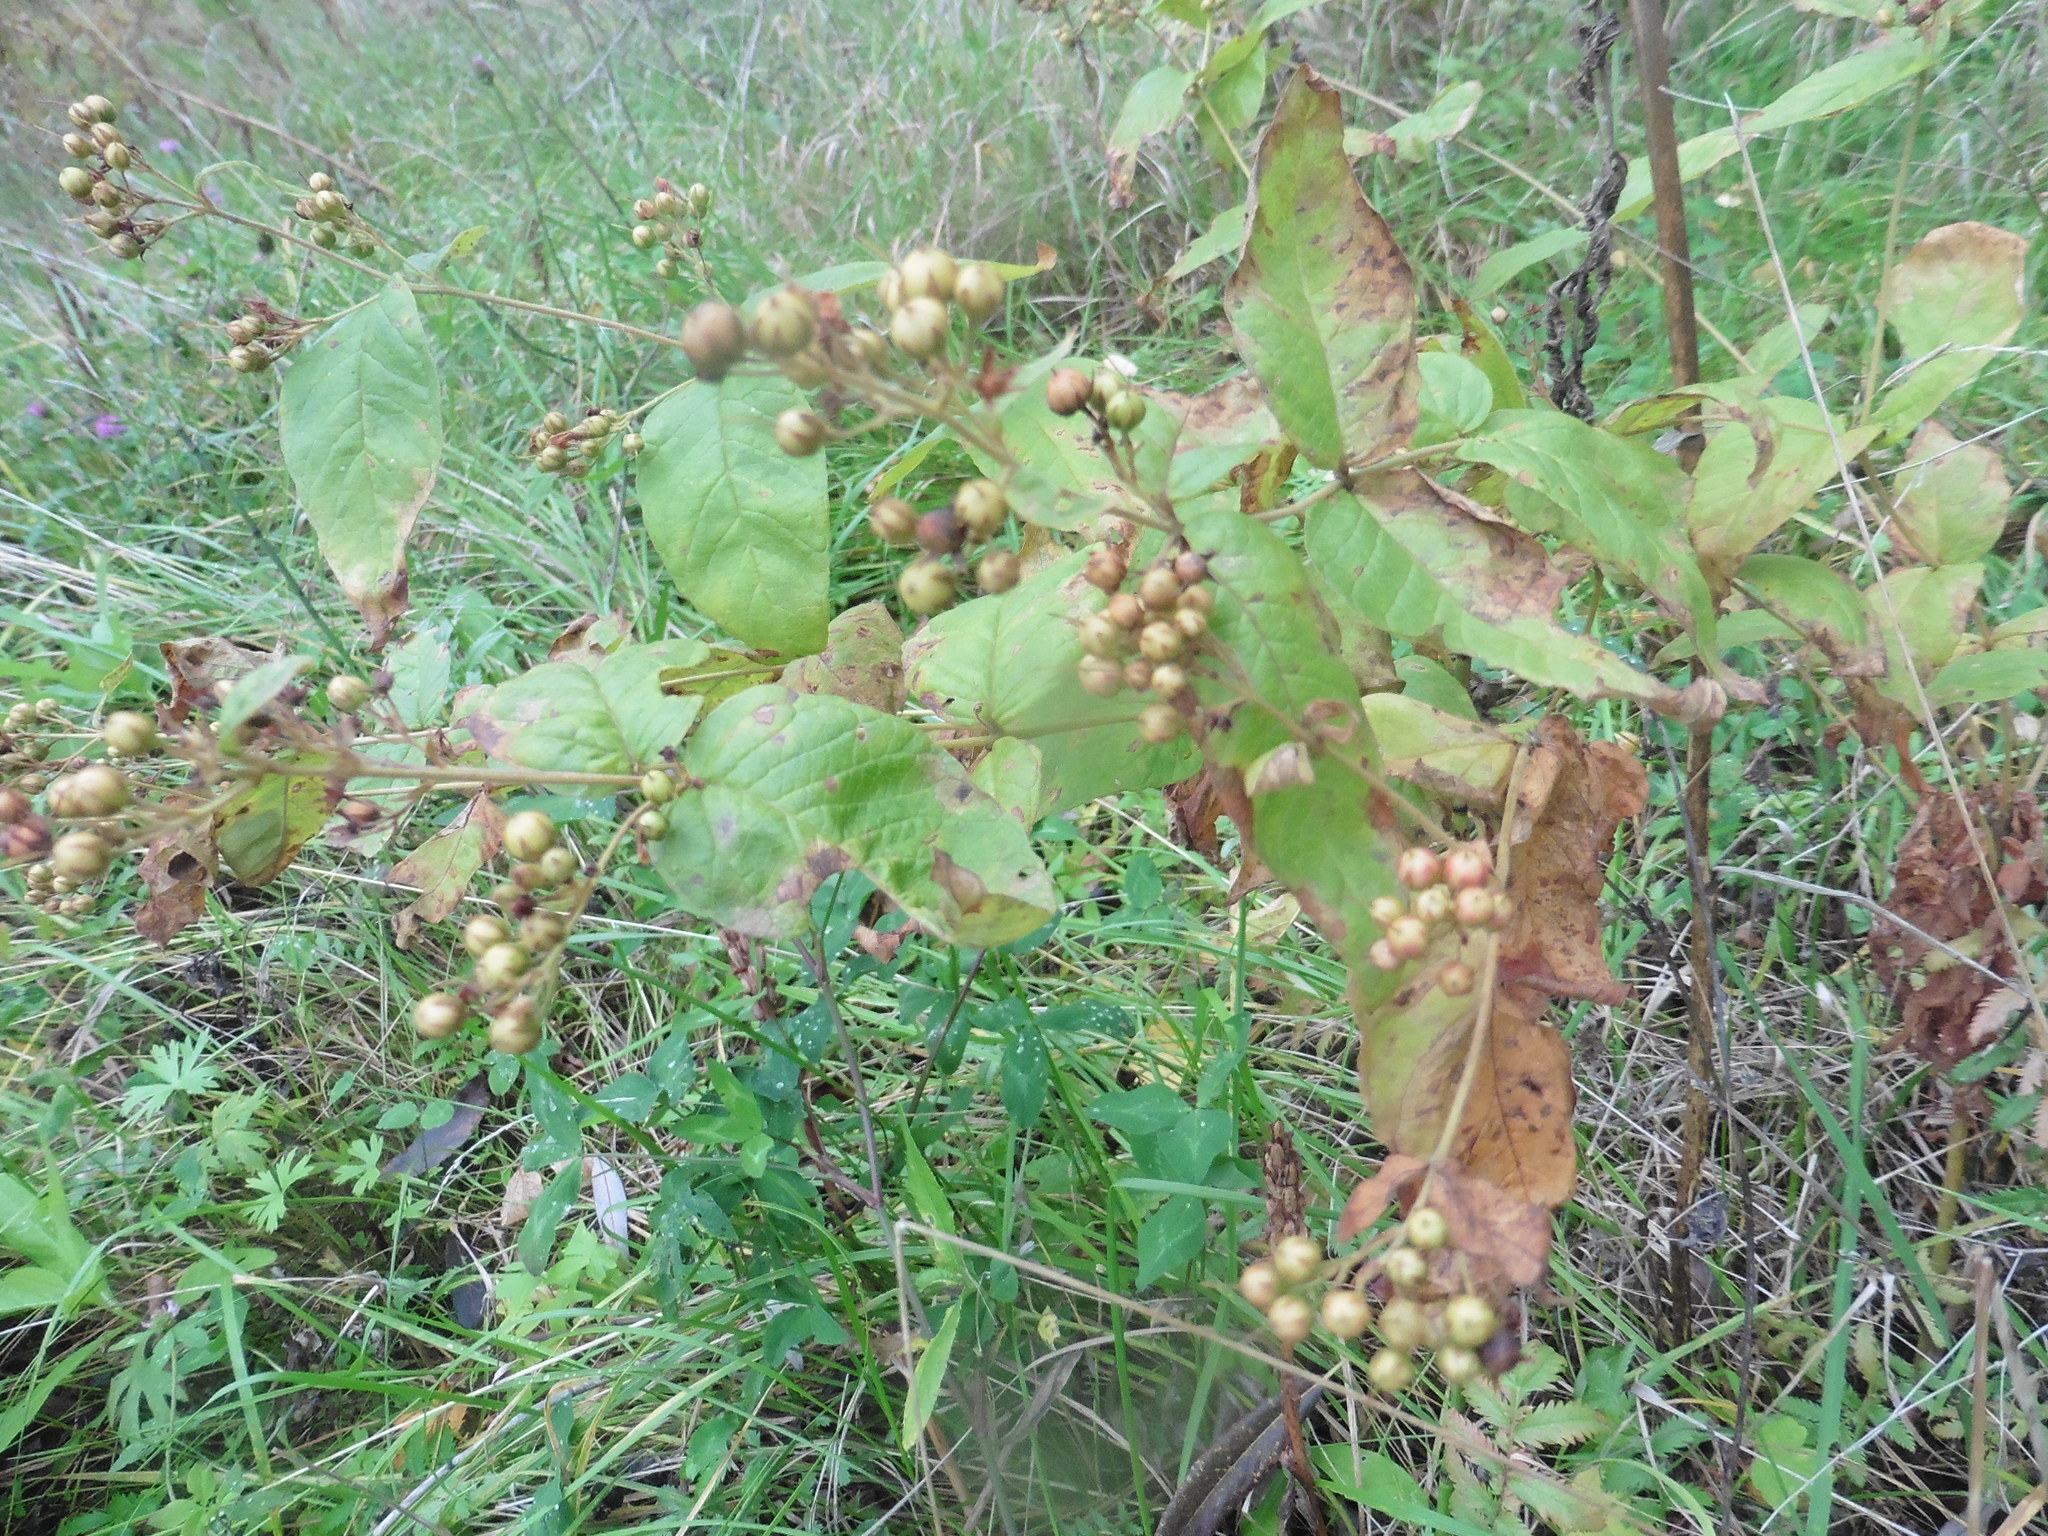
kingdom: Plantae
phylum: Tracheophyta
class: Magnoliopsida
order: Ericales
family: Primulaceae
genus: Lysimachia
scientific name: Lysimachia vulgaris
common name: Yellow loosestrife
